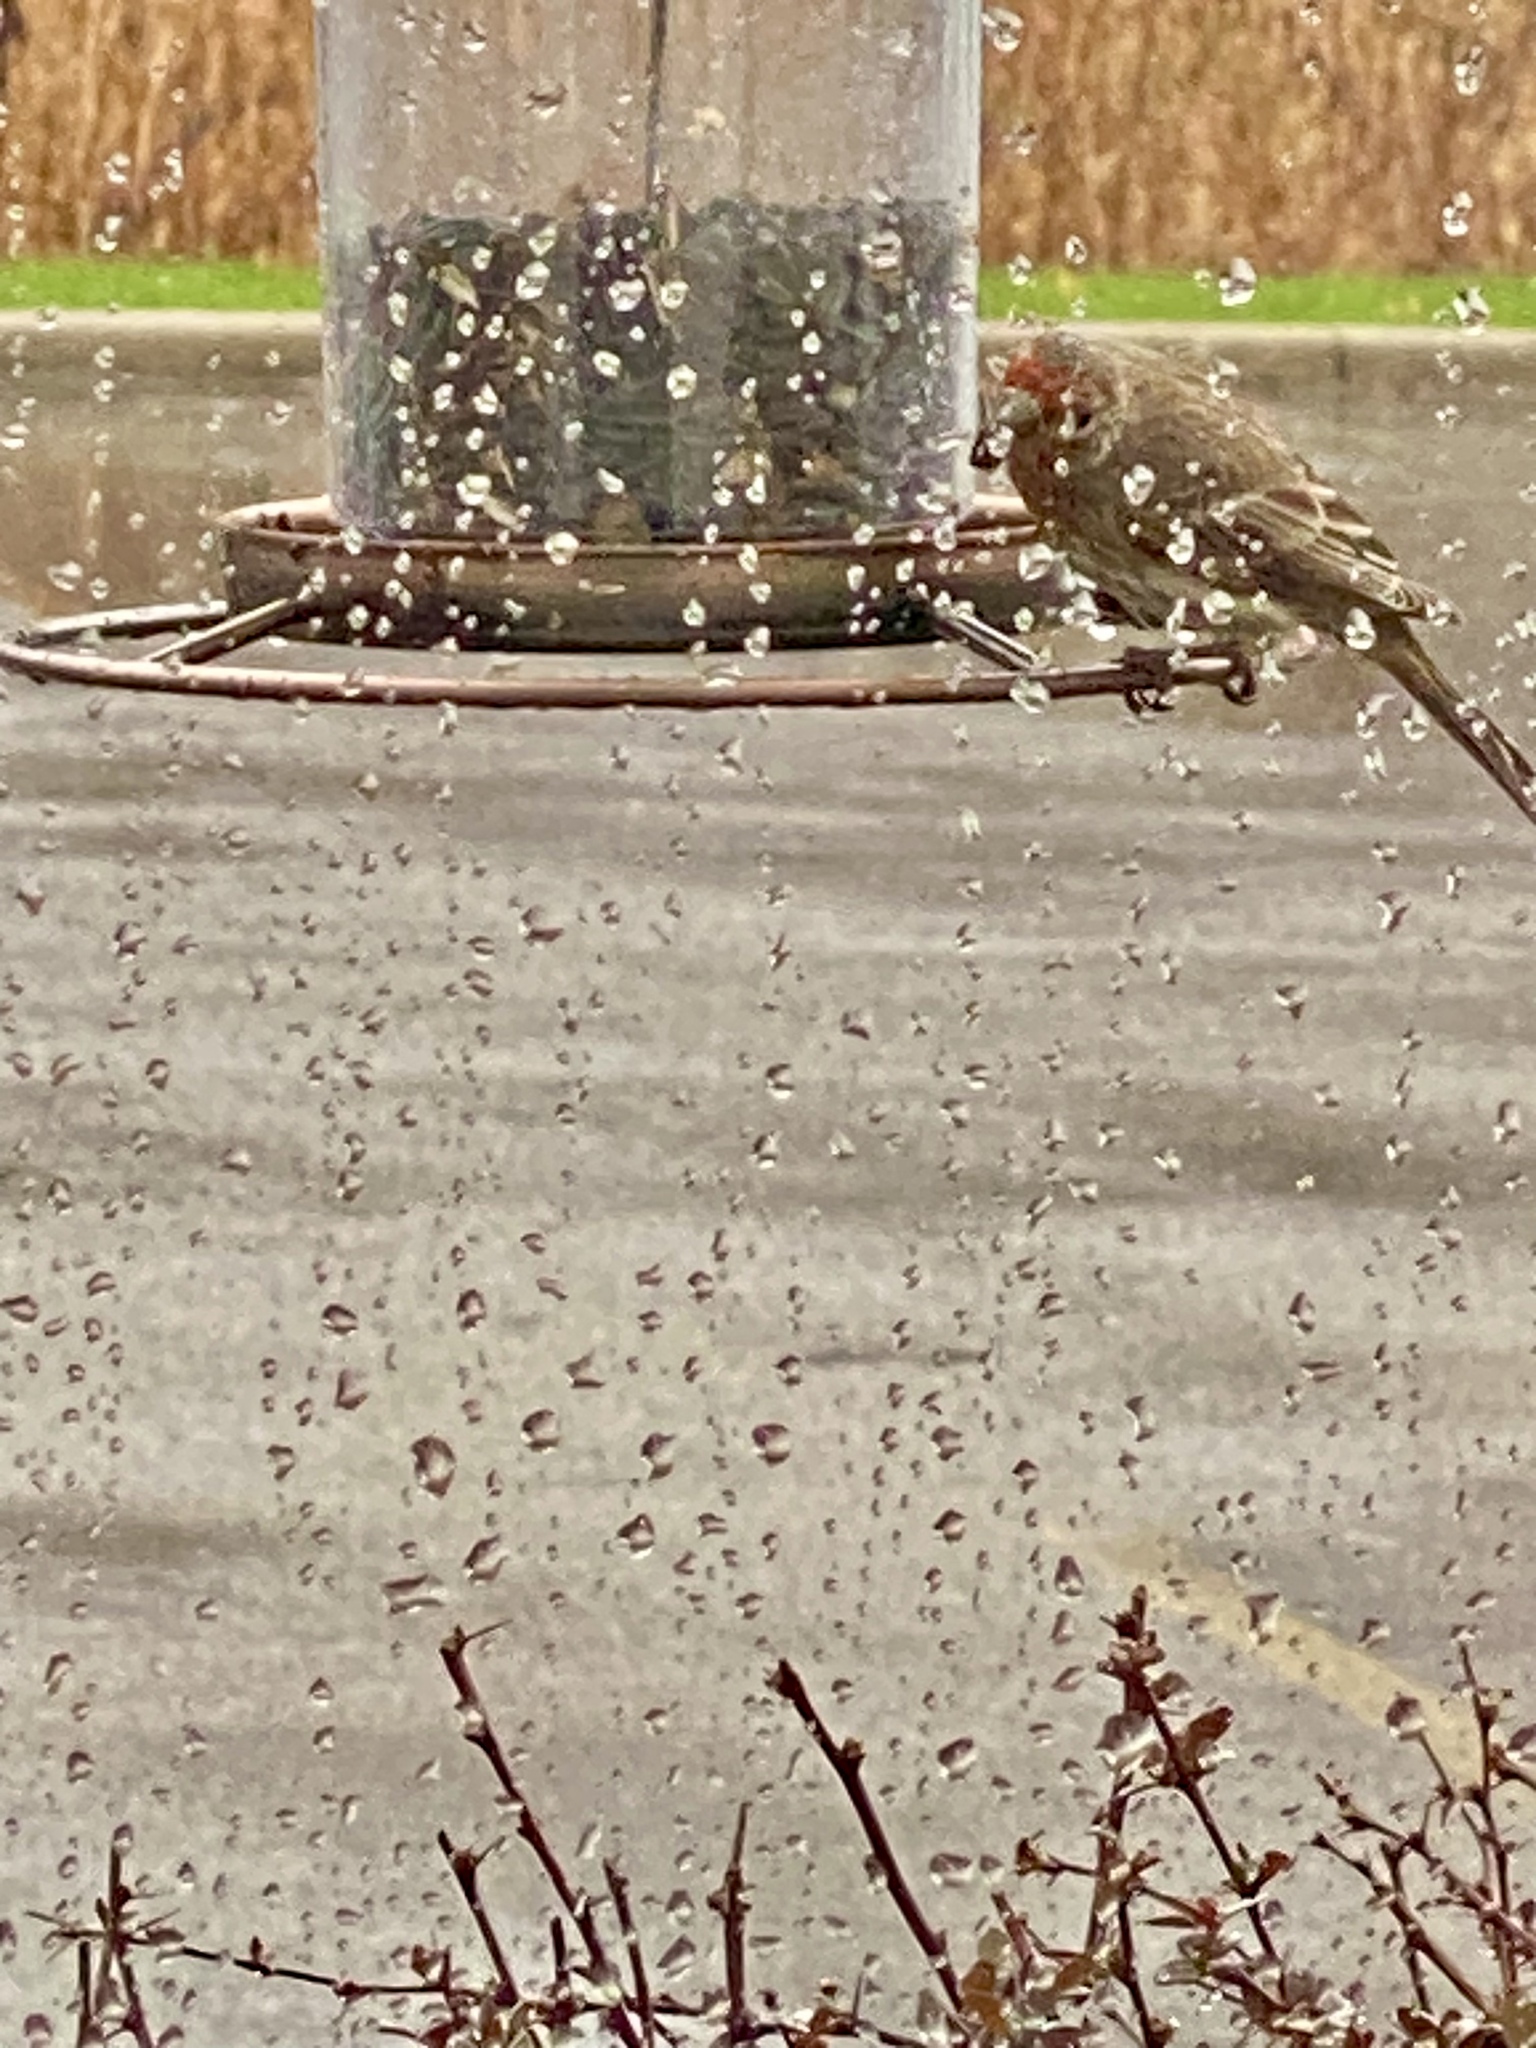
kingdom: Animalia
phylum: Chordata
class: Aves
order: Passeriformes
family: Fringillidae
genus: Haemorhous
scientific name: Haemorhous mexicanus
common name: House finch
